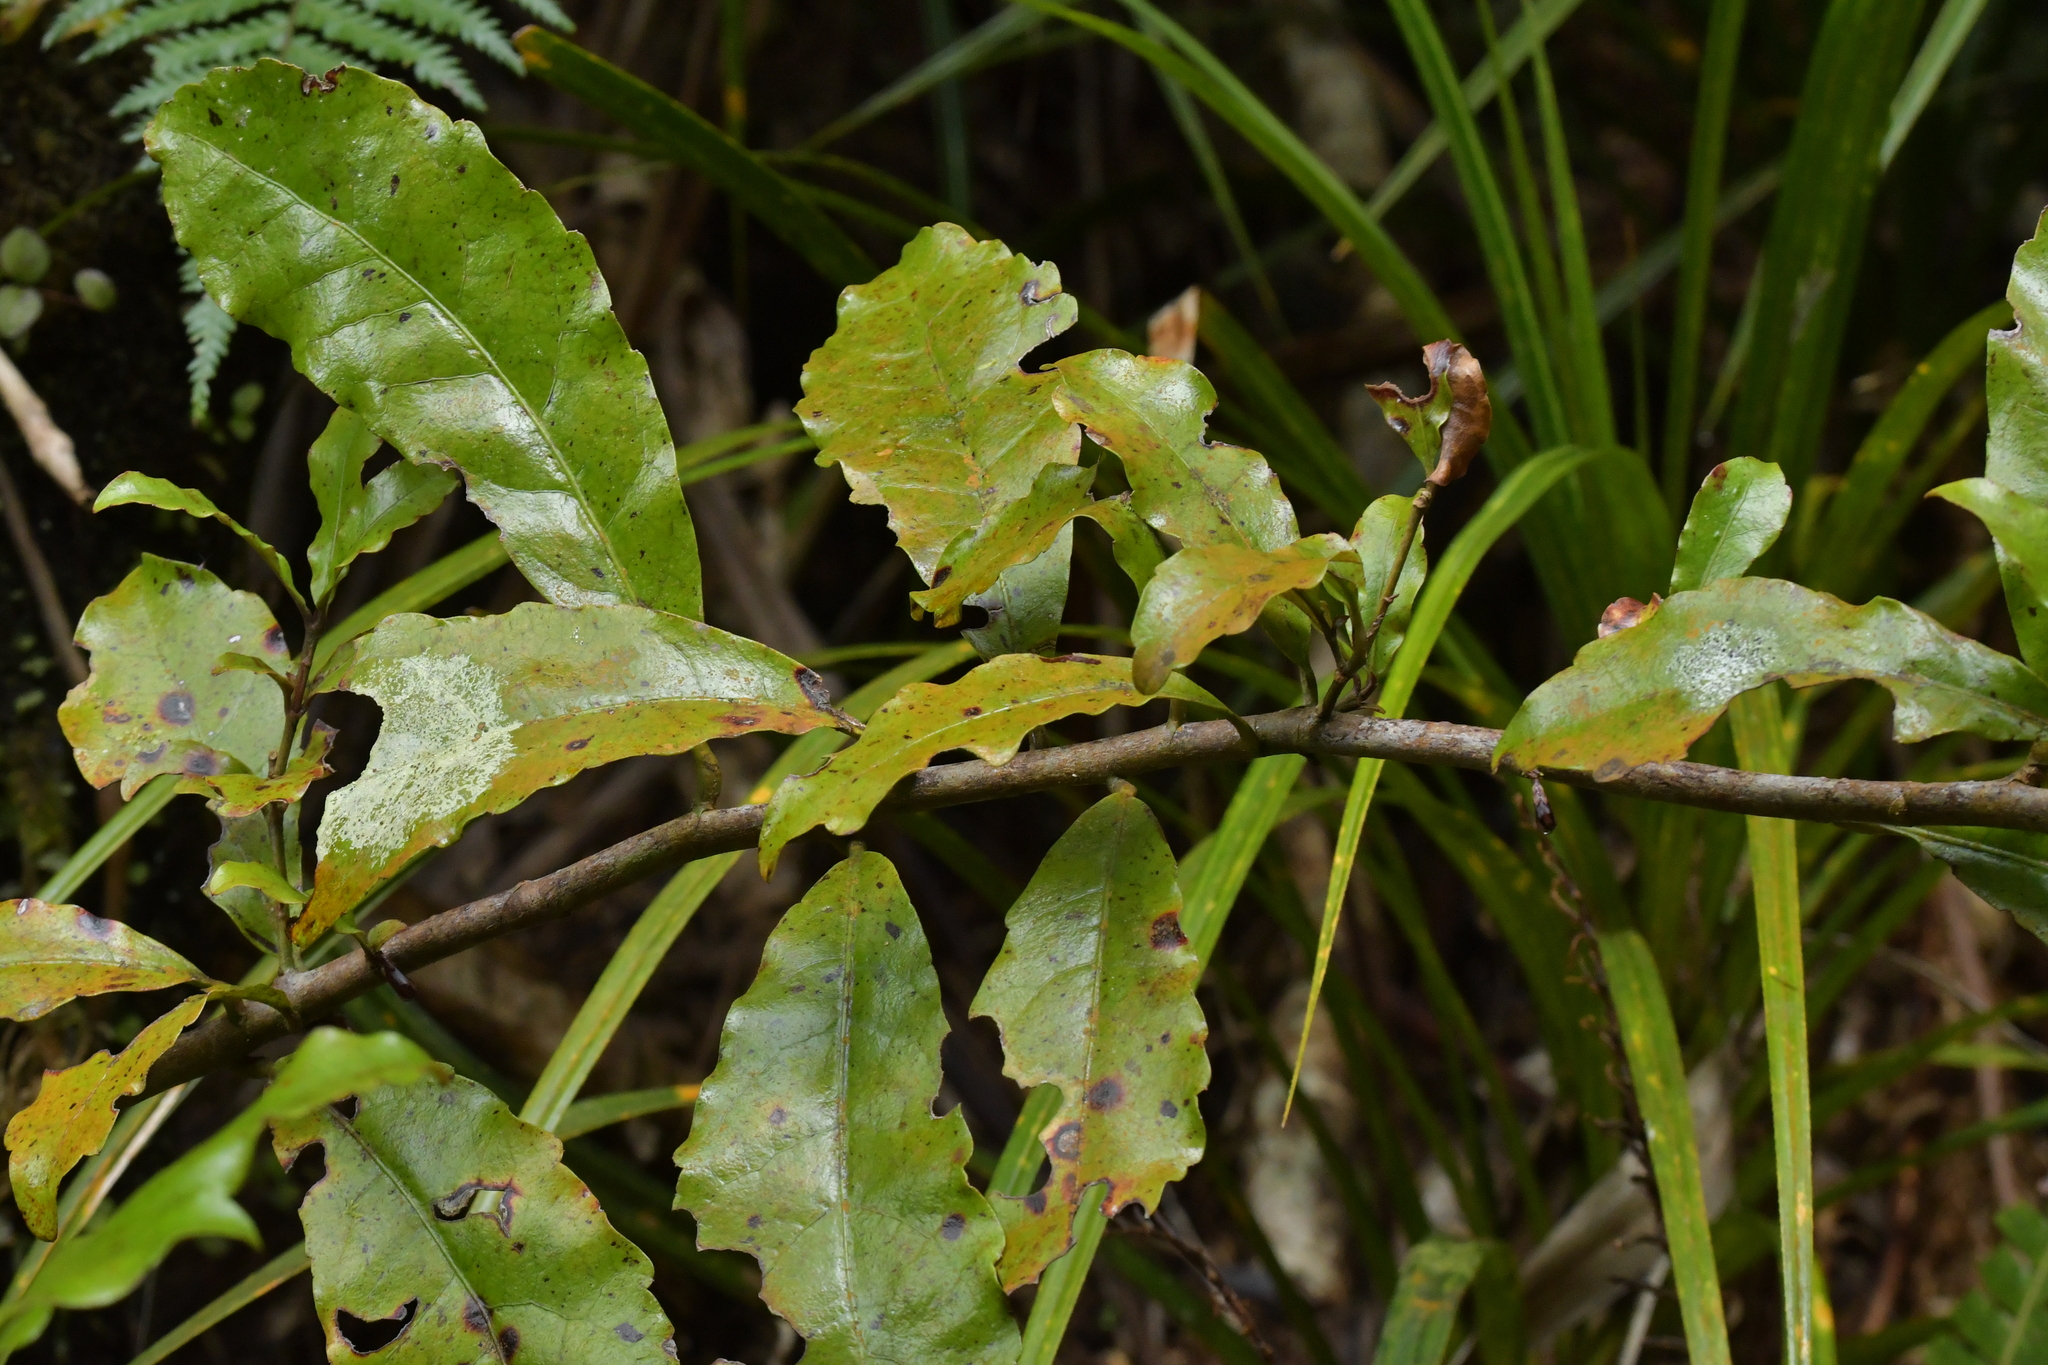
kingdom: Plantae
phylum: Tracheophyta
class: Magnoliopsida
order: Asterales
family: Alseuosmiaceae
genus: Alseuosmia
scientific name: Alseuosmia macrophylla
